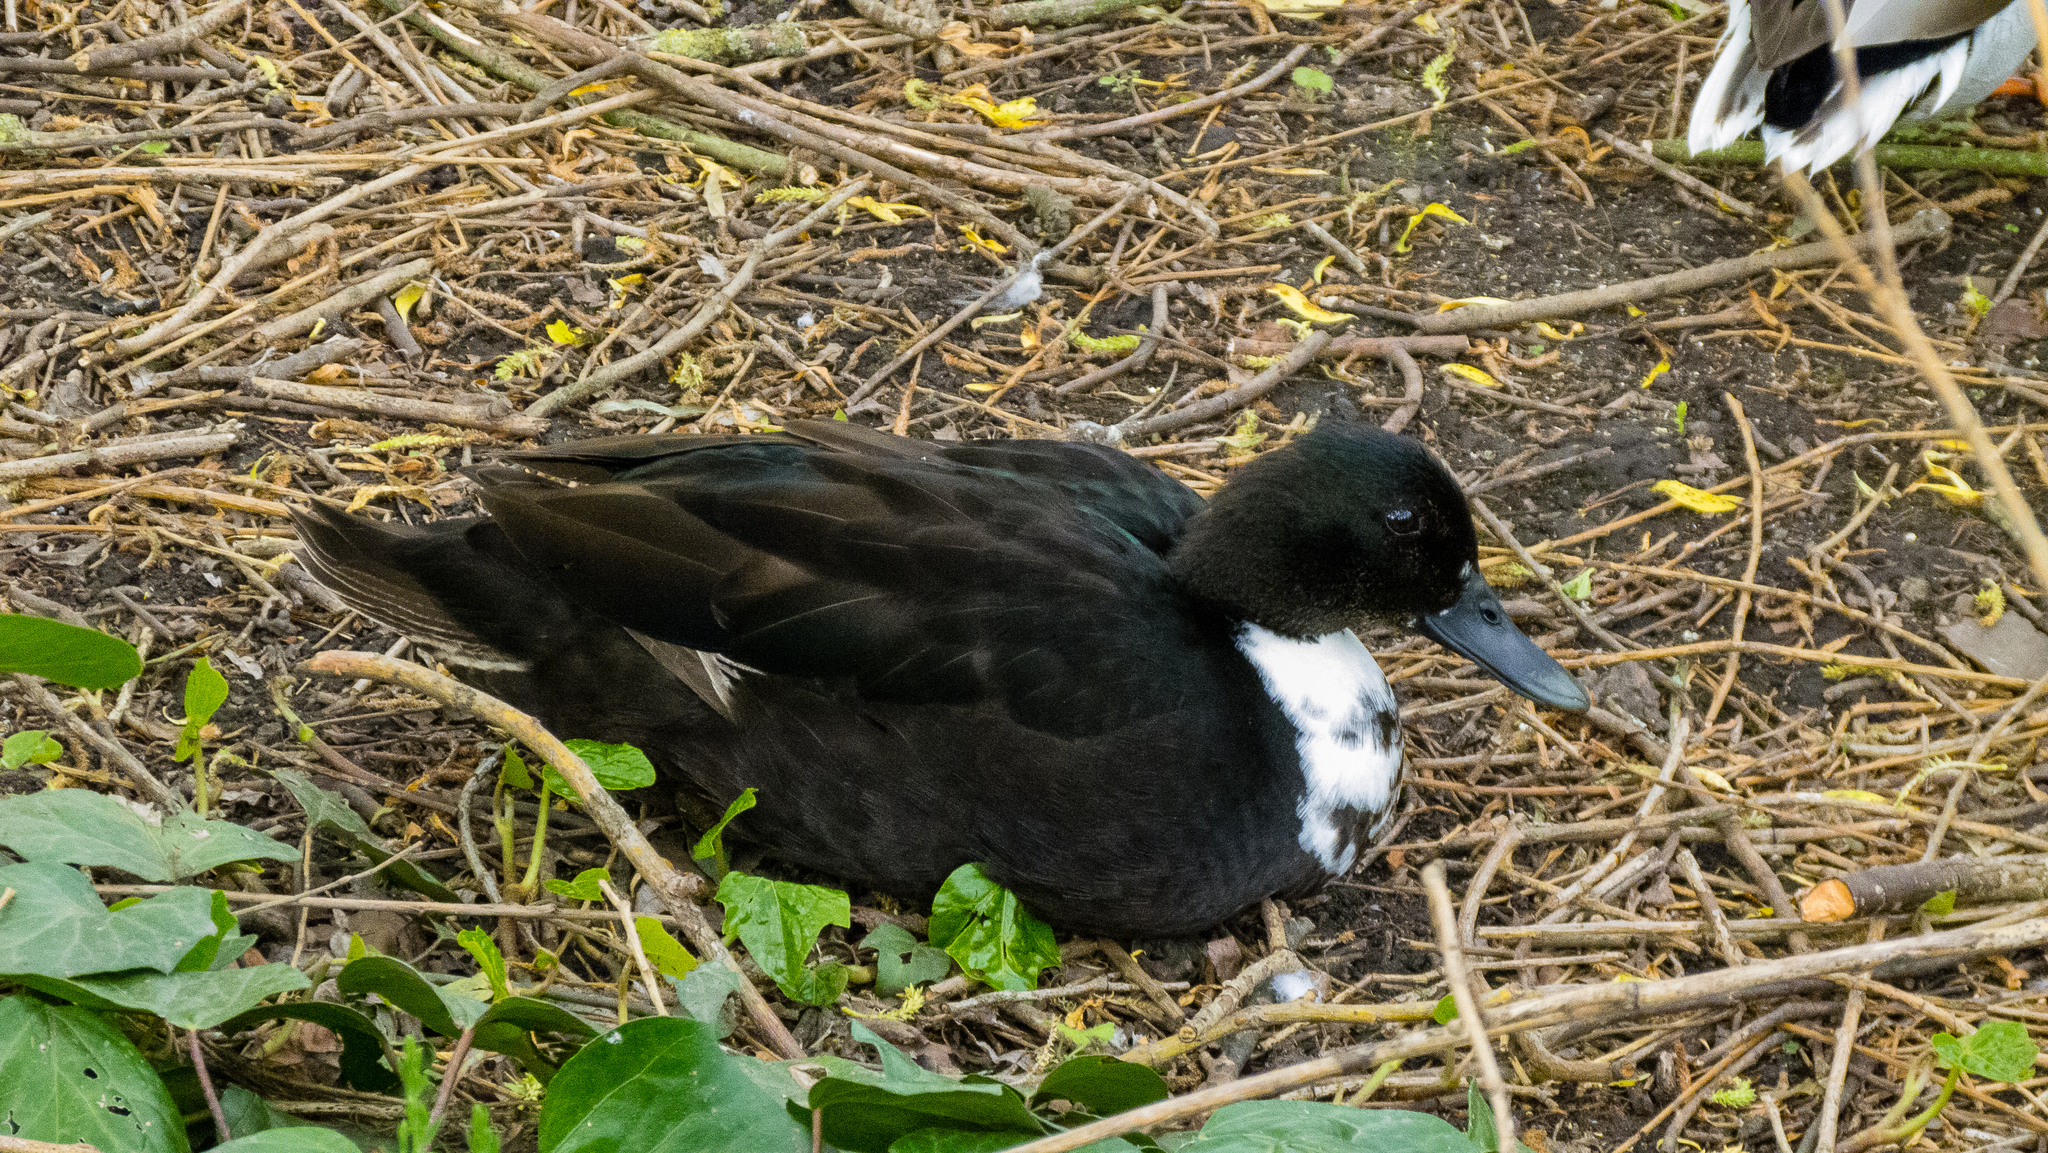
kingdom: Animalia
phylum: Chordata
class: Aves
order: Anseriformes
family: Anatidae
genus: Anas
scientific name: Anas platyrhynchos
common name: Mallard
